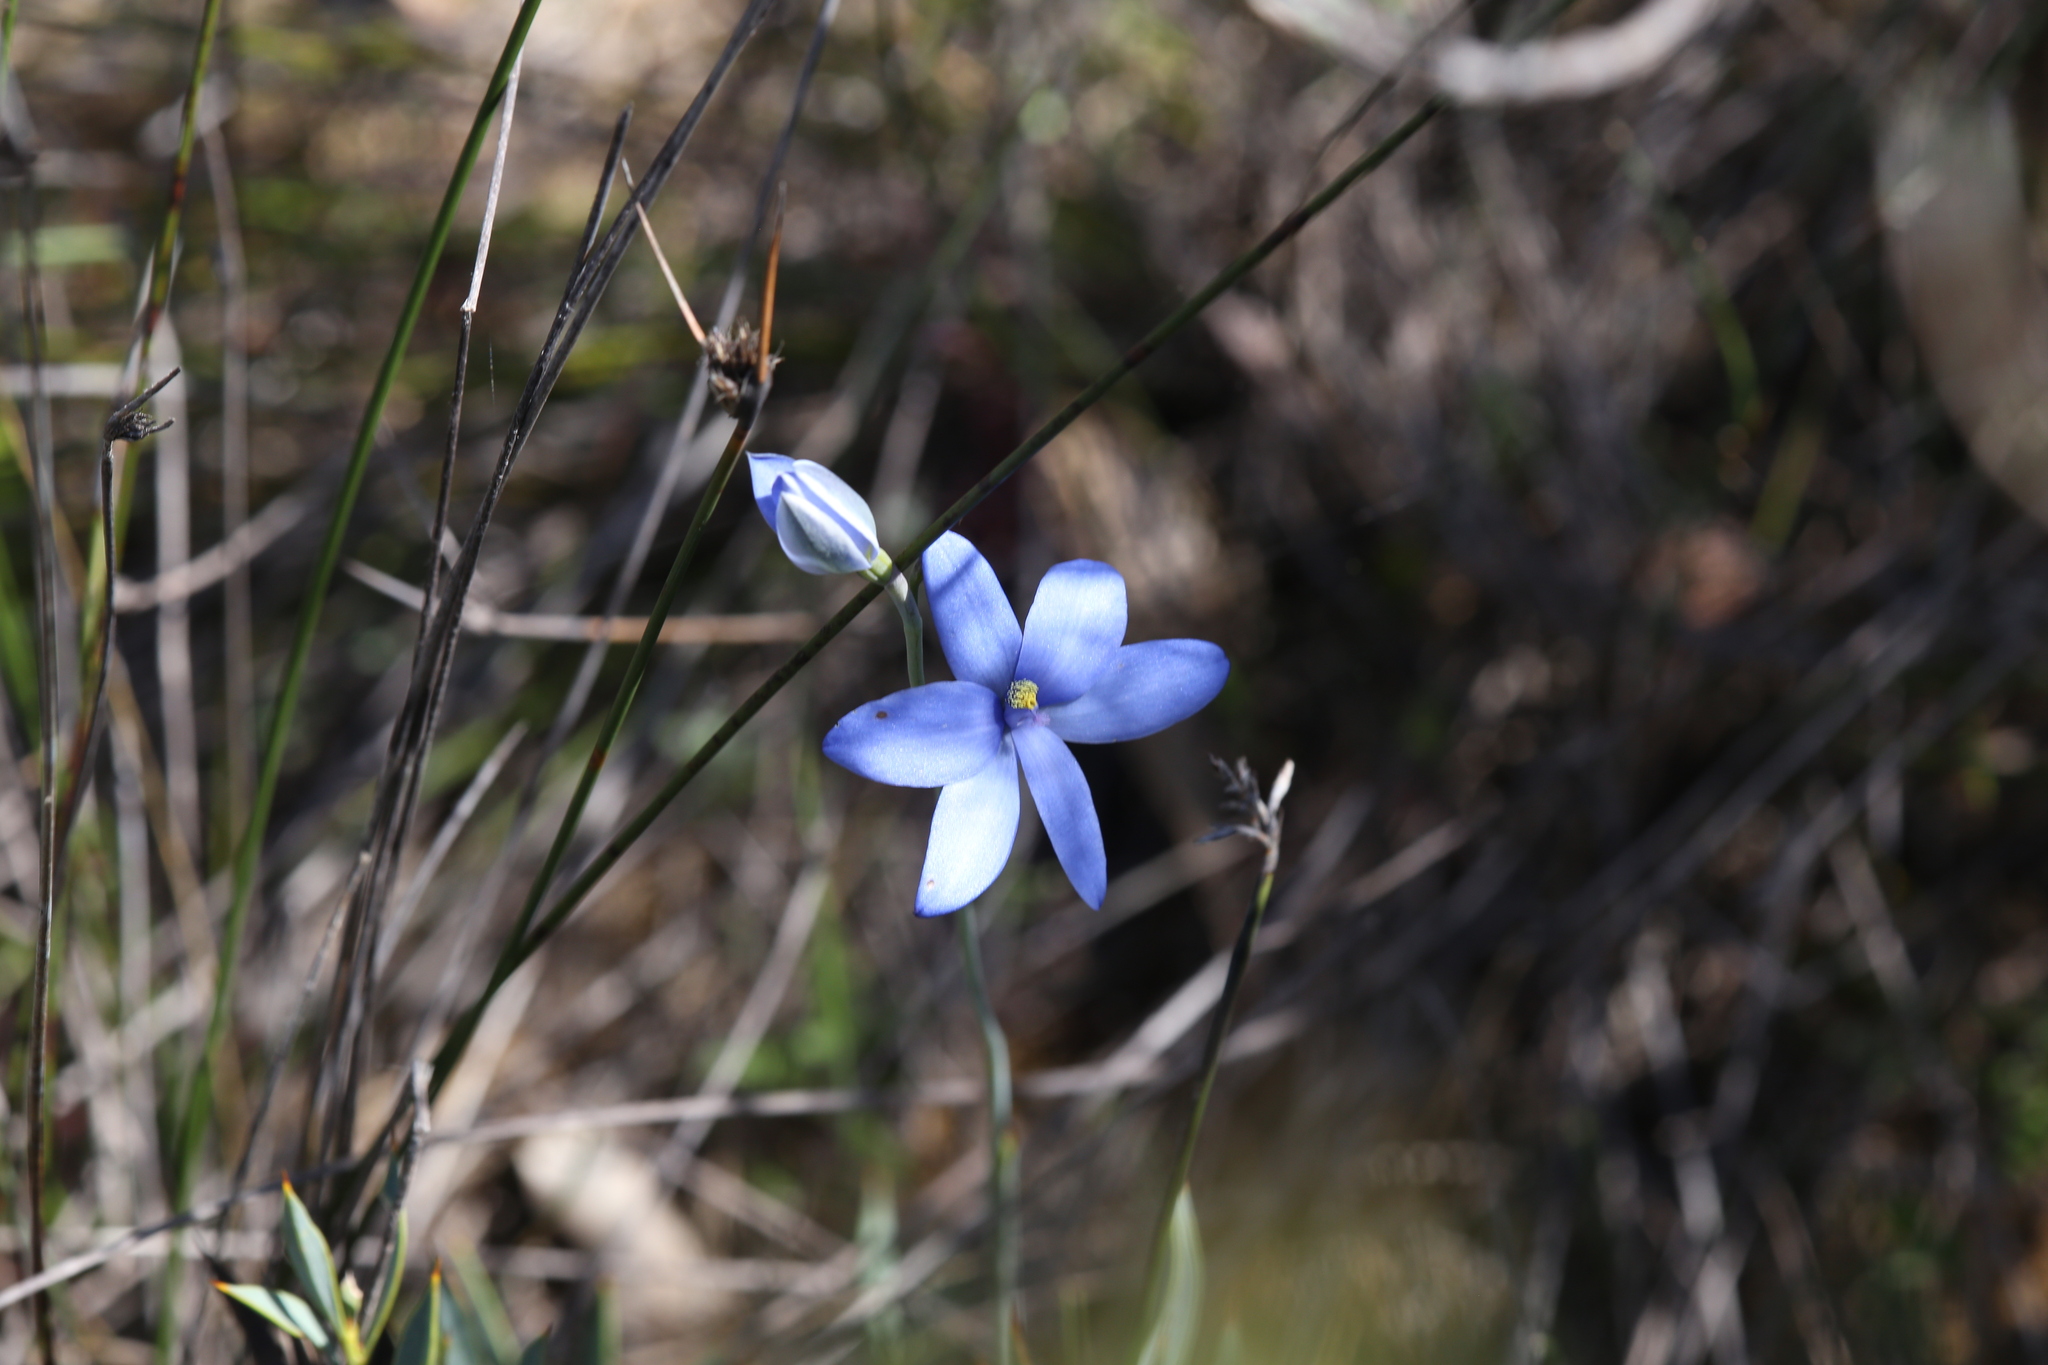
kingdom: Plantae
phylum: Tracheophyta
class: Liliopsida
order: Asparagales
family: Orchidaceae
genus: Thelymitra
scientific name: Thelymitra crinita
